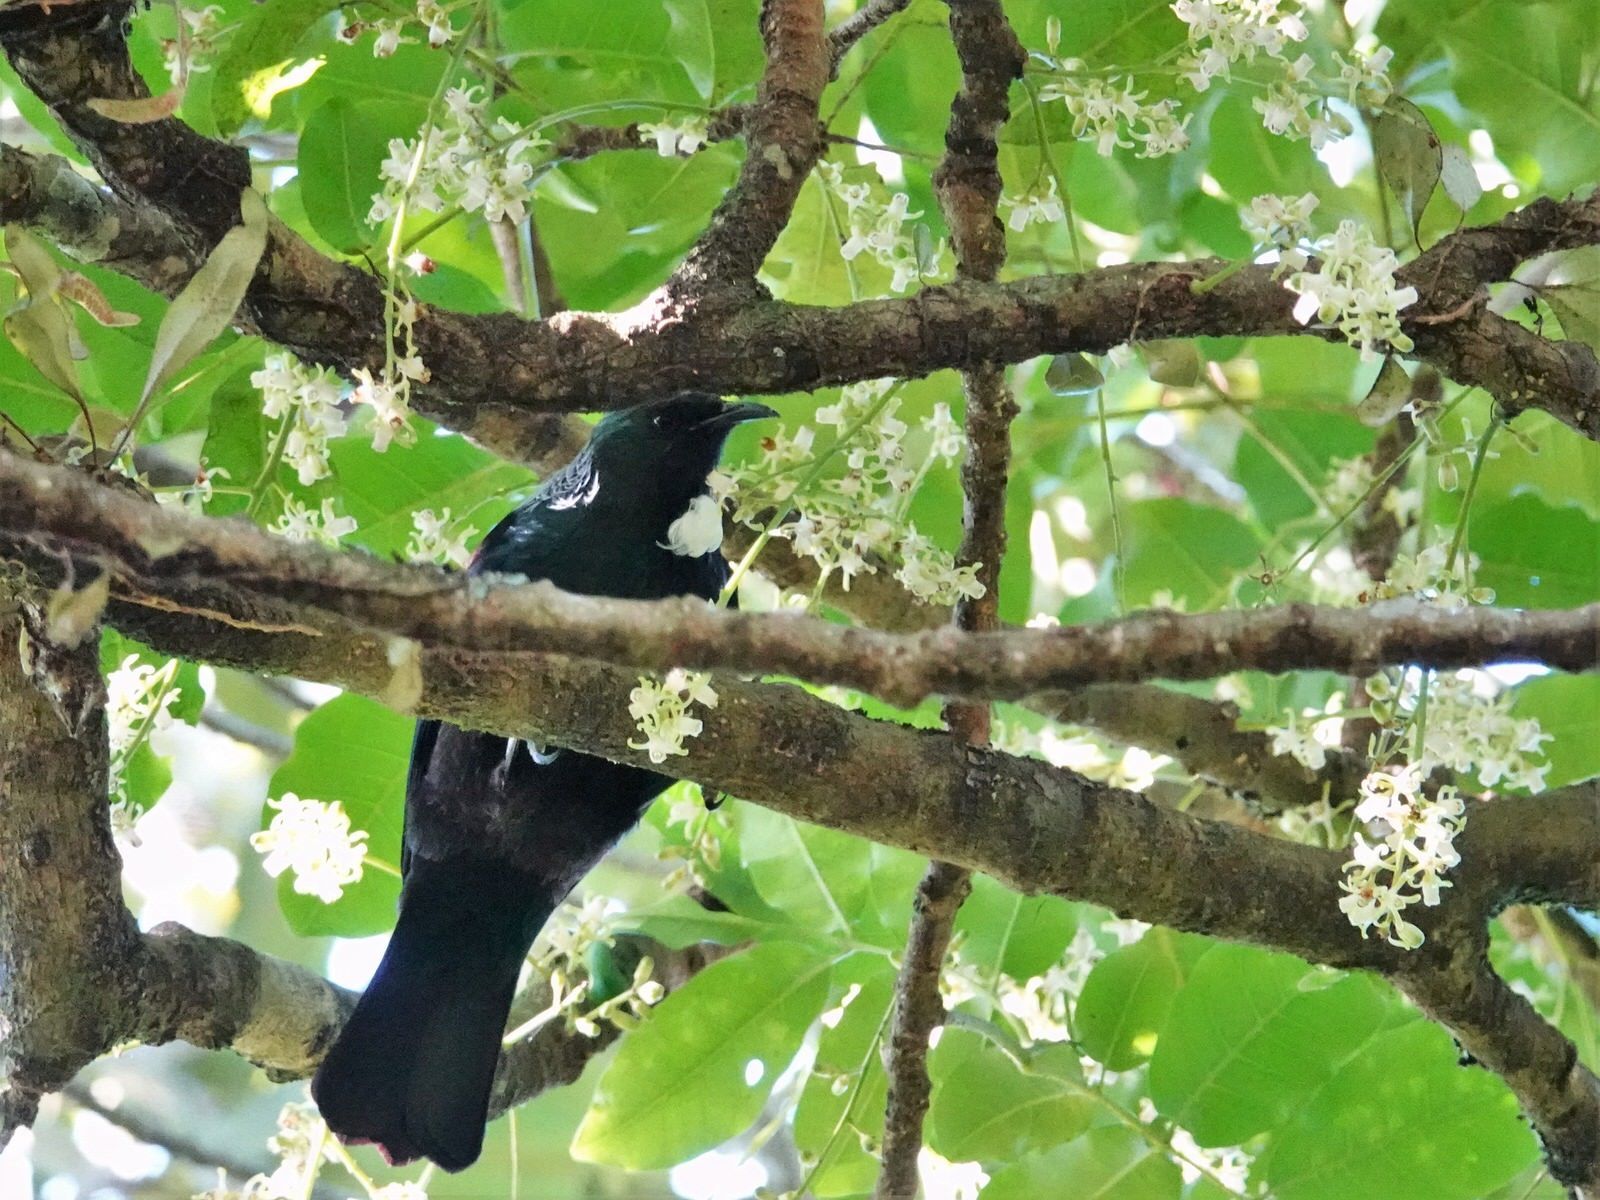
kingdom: Animalia
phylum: Chordata
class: Aves
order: Passeriformes
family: Meliphagidae
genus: Prosthemadera
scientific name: Prosthemadera novaeseelandiae
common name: Tui
